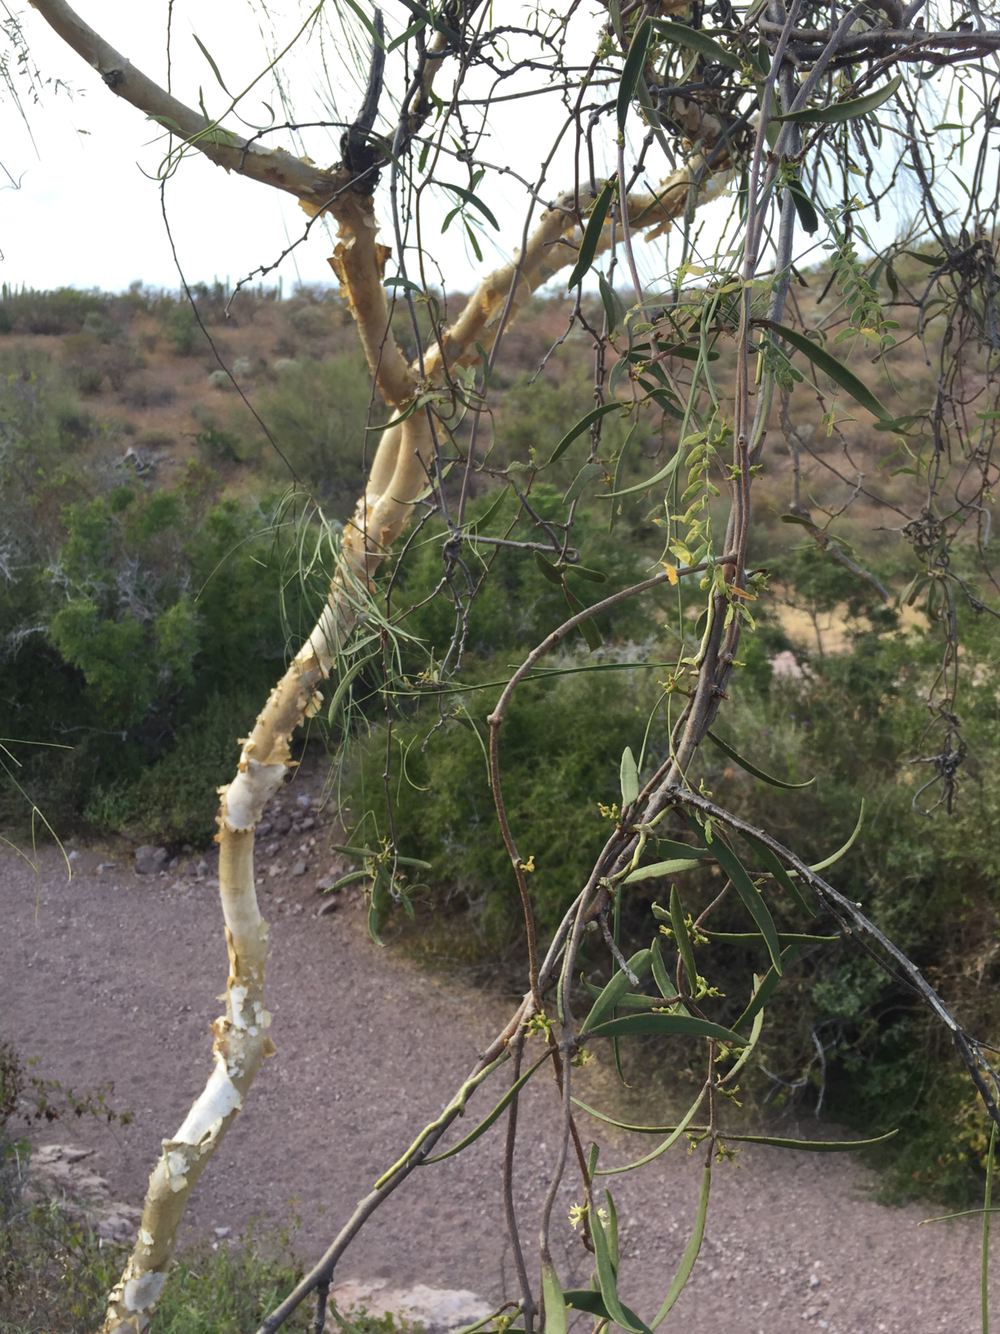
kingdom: Plantae
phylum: Tracheophyta
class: Magnoliopsida
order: Fabales
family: Fabaceae
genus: Mariosousa
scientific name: Mariosousa heterophylla
